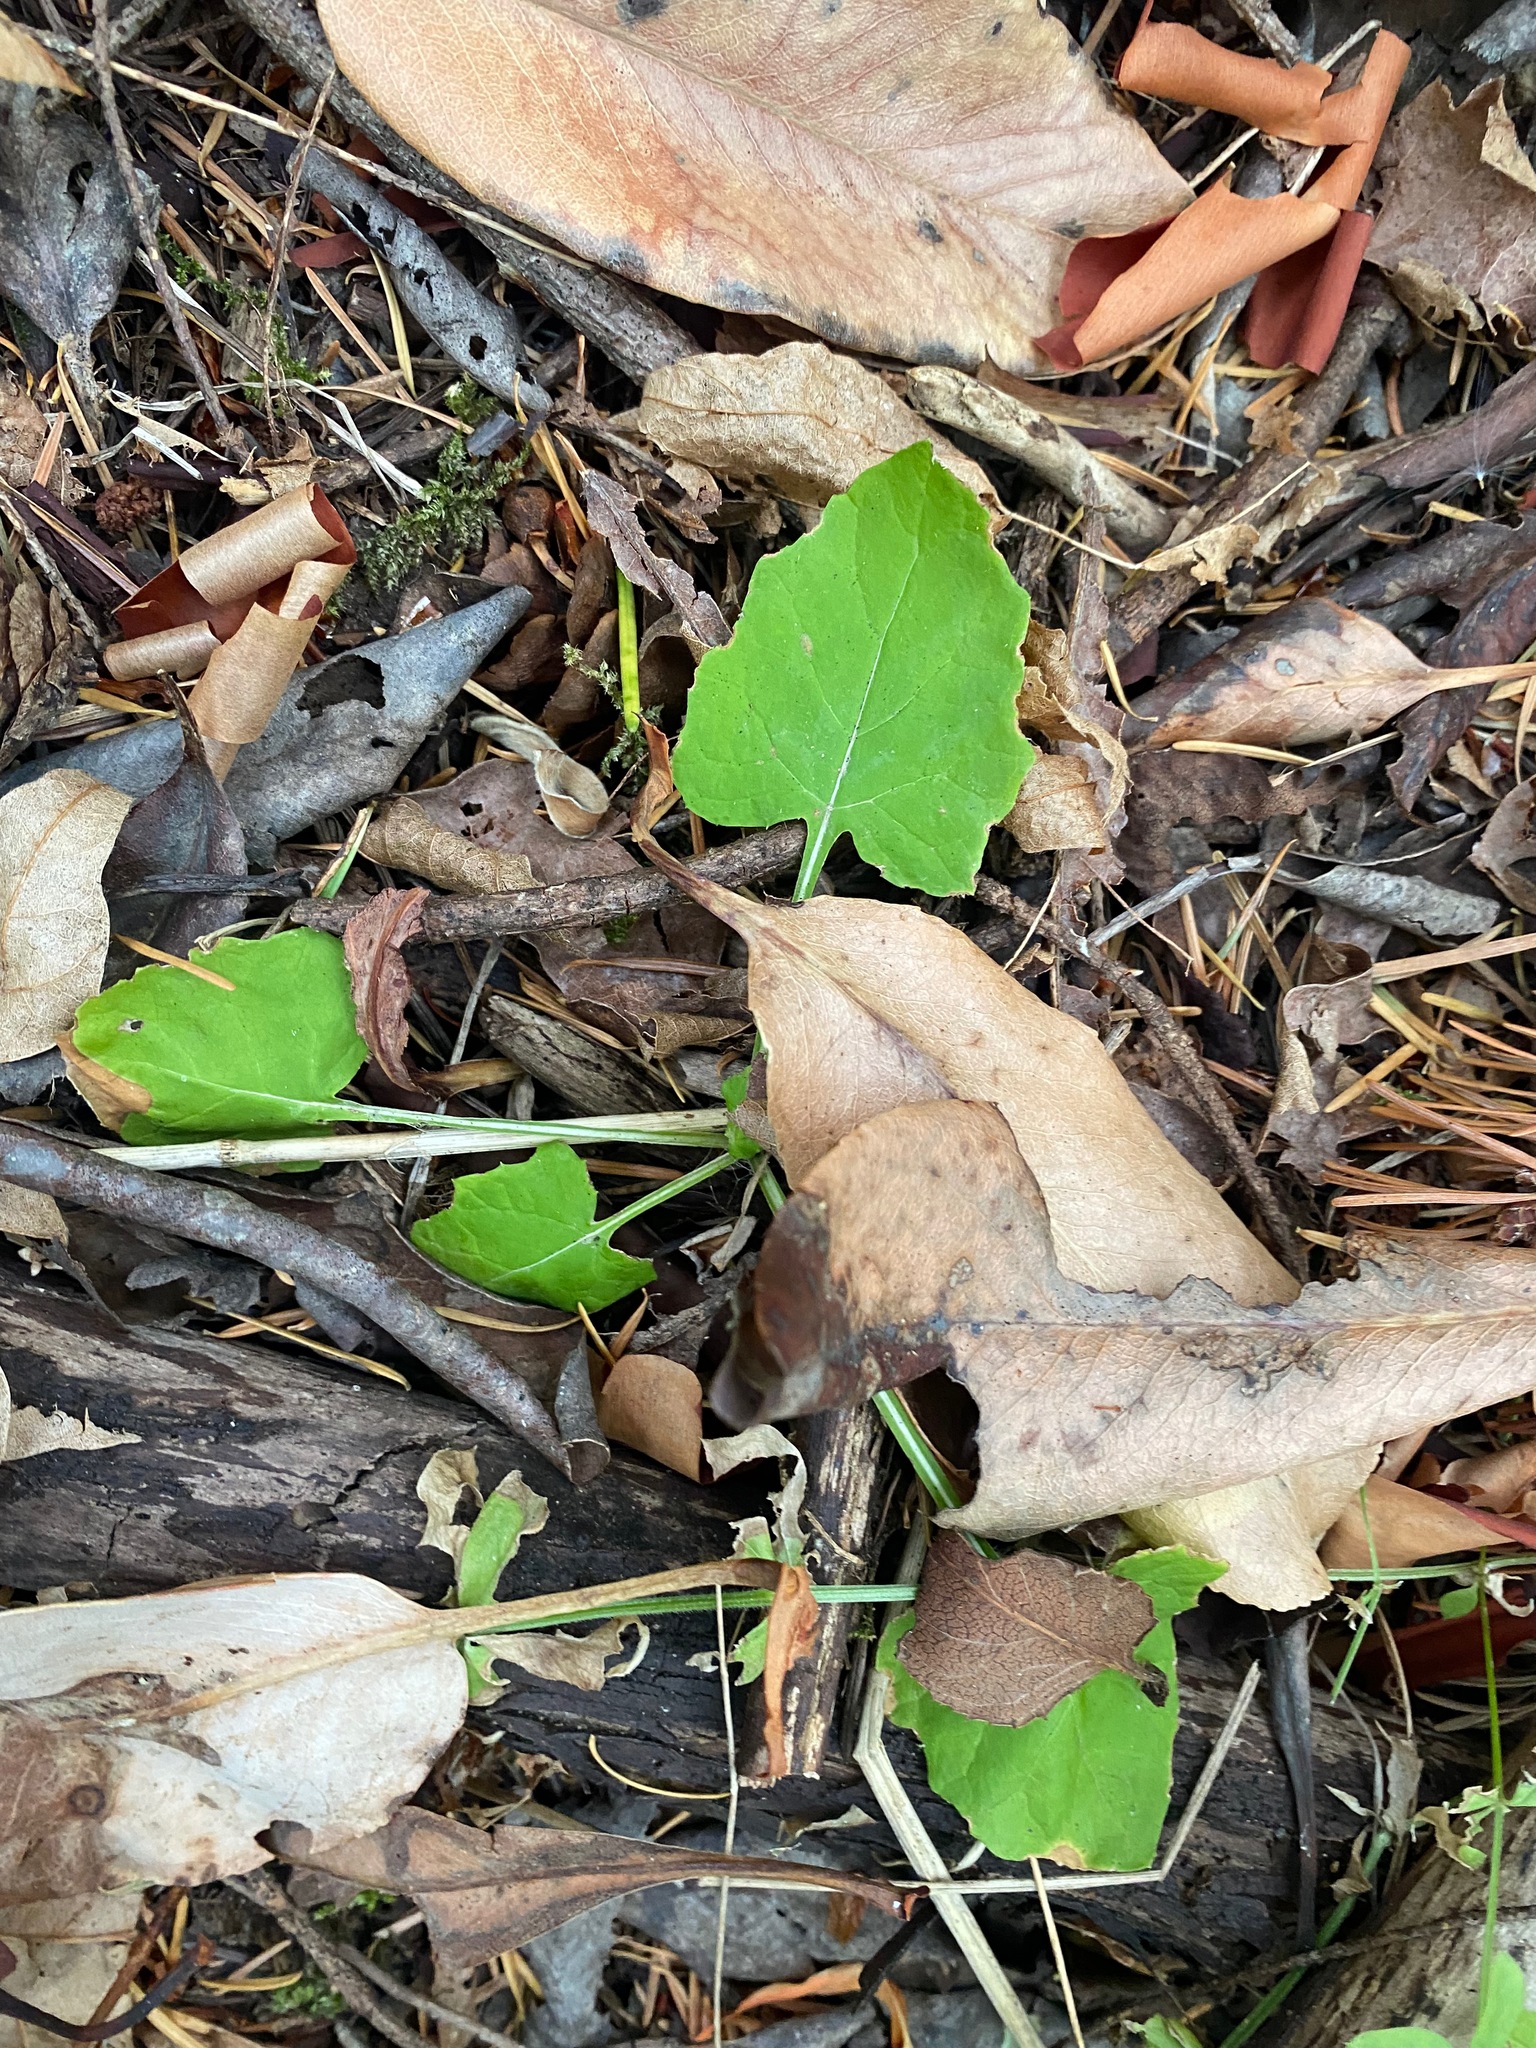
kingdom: Plantae
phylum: Tracheophyta
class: Magnoliopsida
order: Asterales
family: Asteraceae
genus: Adenocaulon
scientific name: Adenocaulon bicolor
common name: Trailplant
